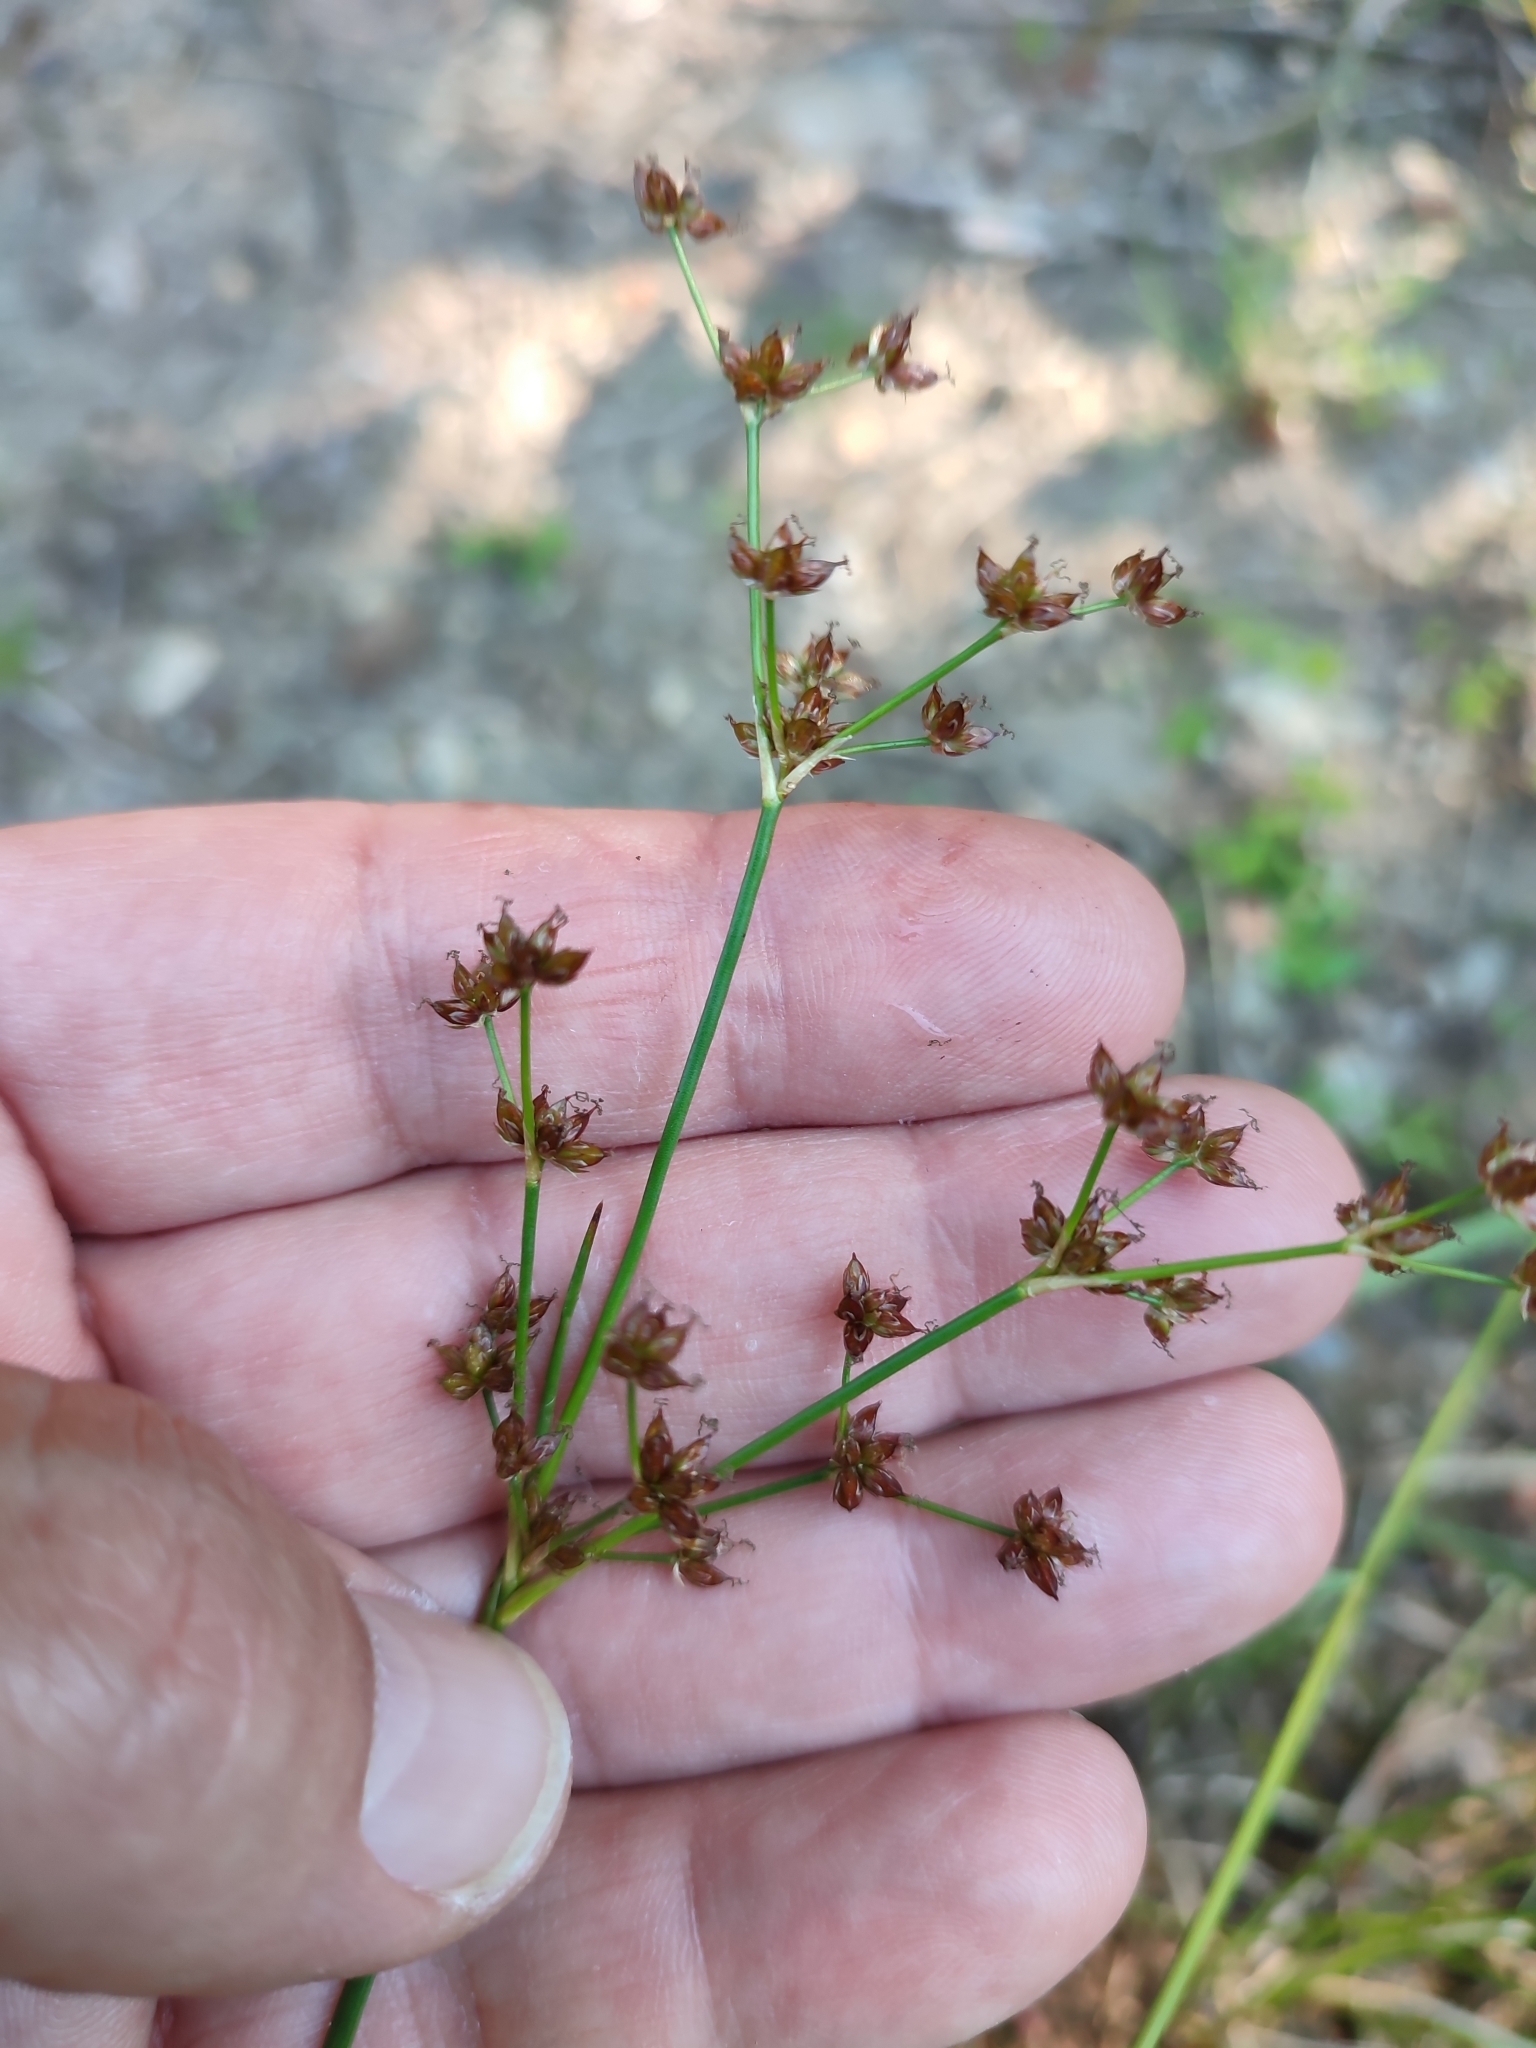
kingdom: Plantae
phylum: Tracheophyta
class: Liliopsida
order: Poales
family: Juncaceae
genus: Juncus
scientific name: Juncus articulatus
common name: Jointed rush
